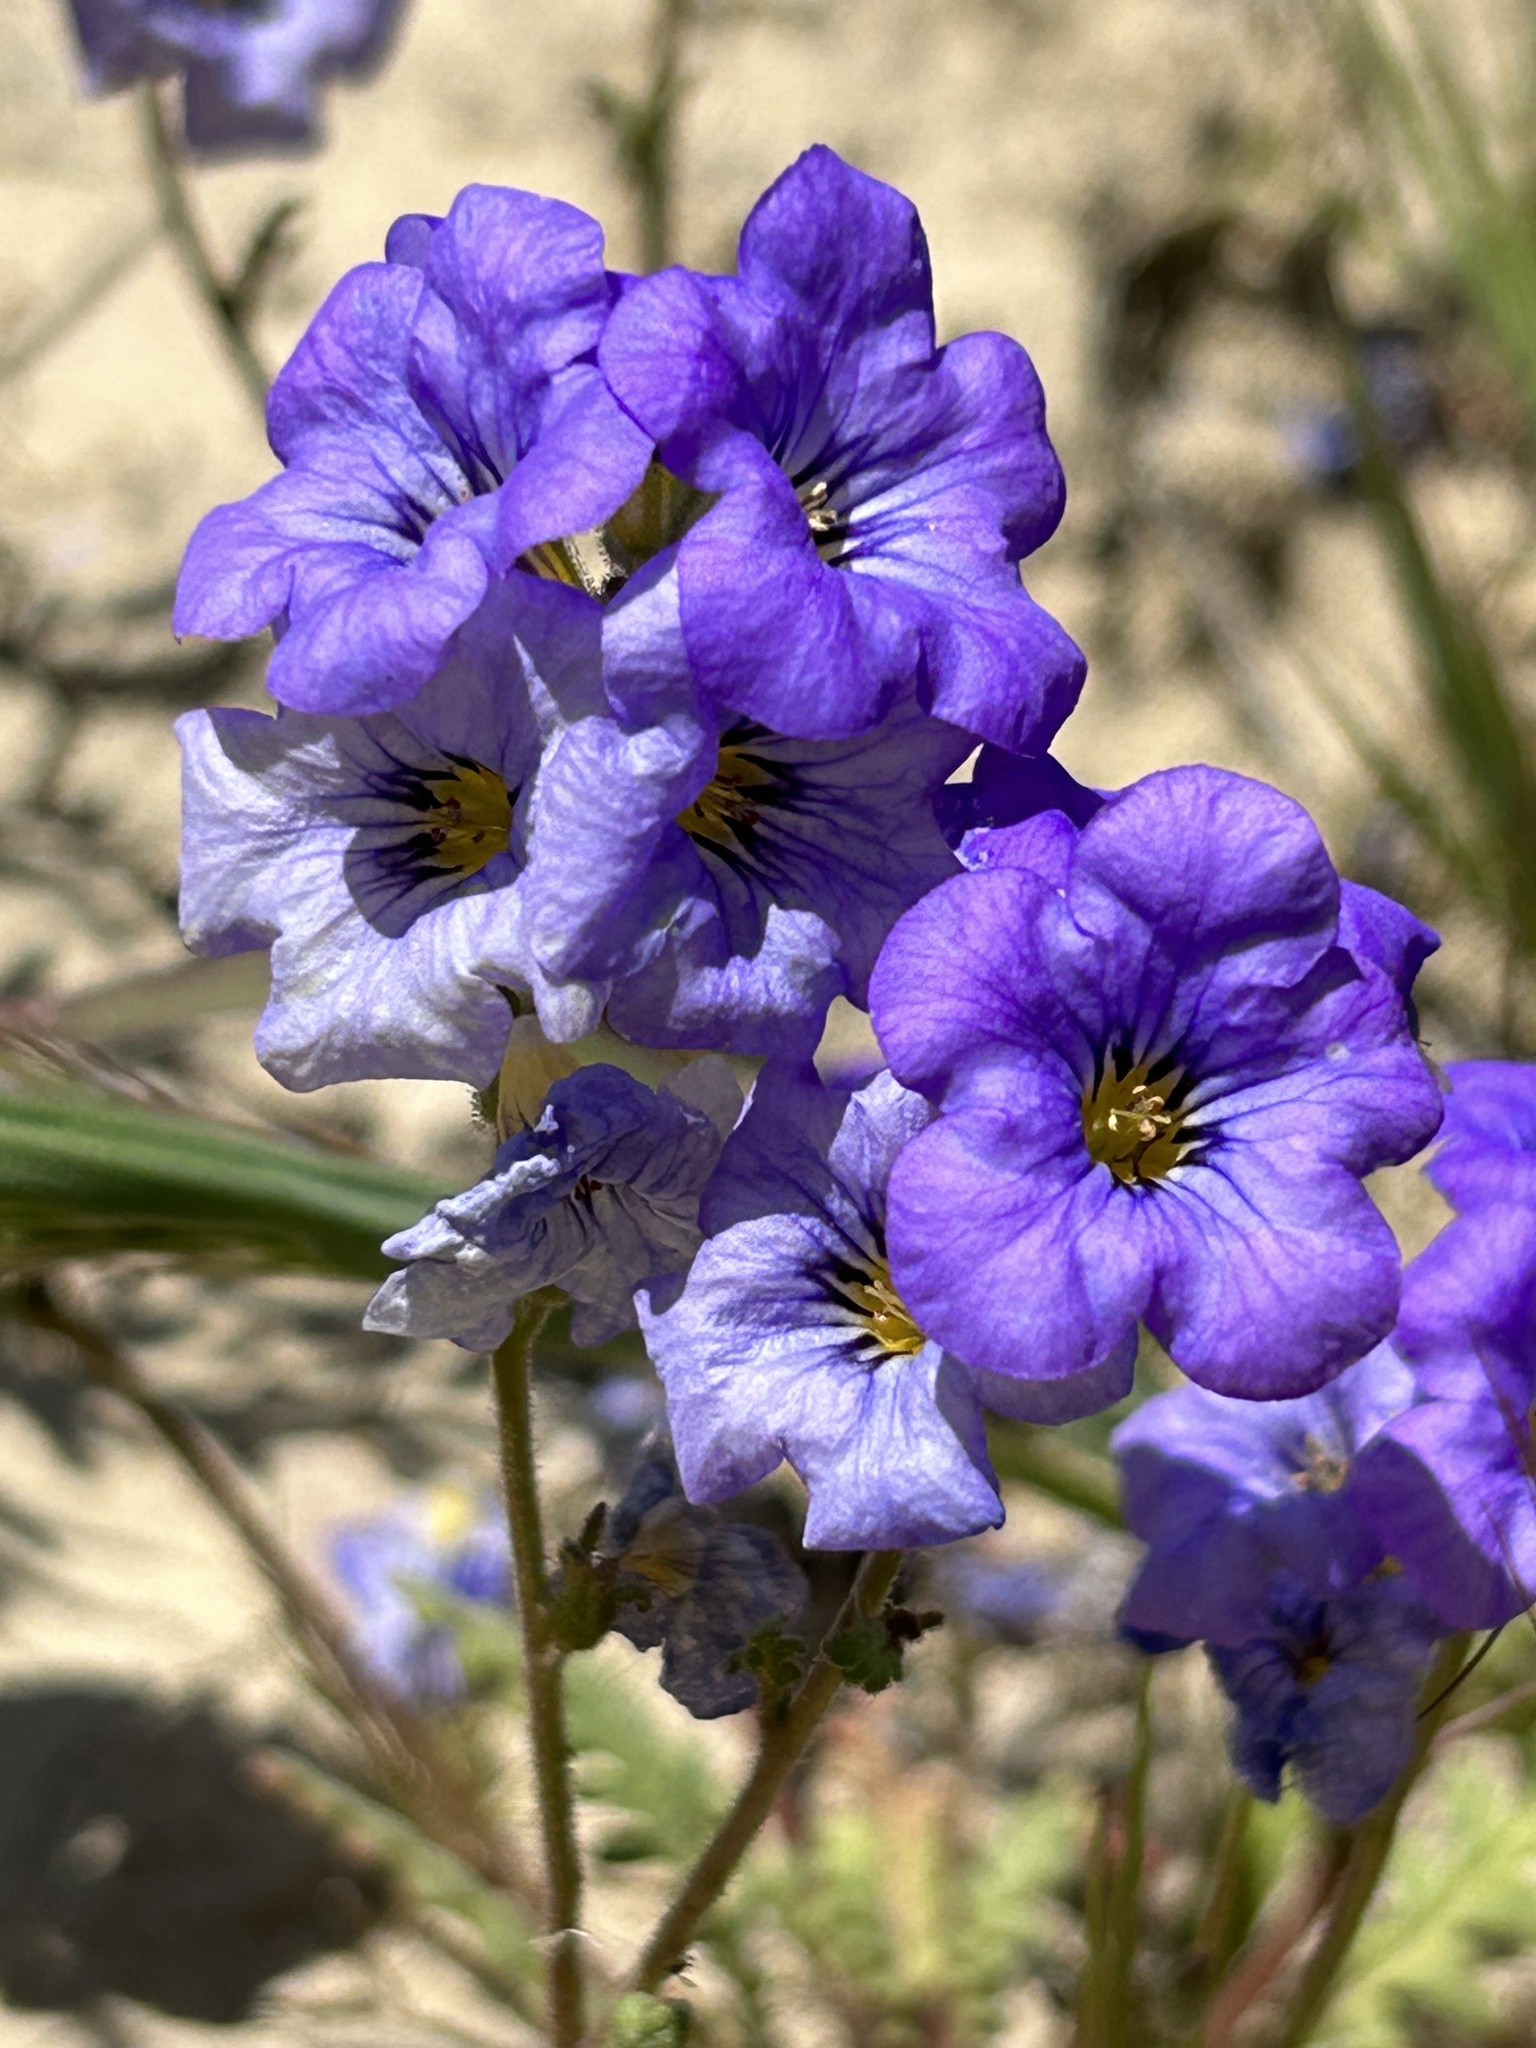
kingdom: Plantae
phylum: Tracheophyta
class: Magnoliopsida
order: Boraginales
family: Hydrophyllaceae
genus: Phacelia
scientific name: Phacelia fremontii
